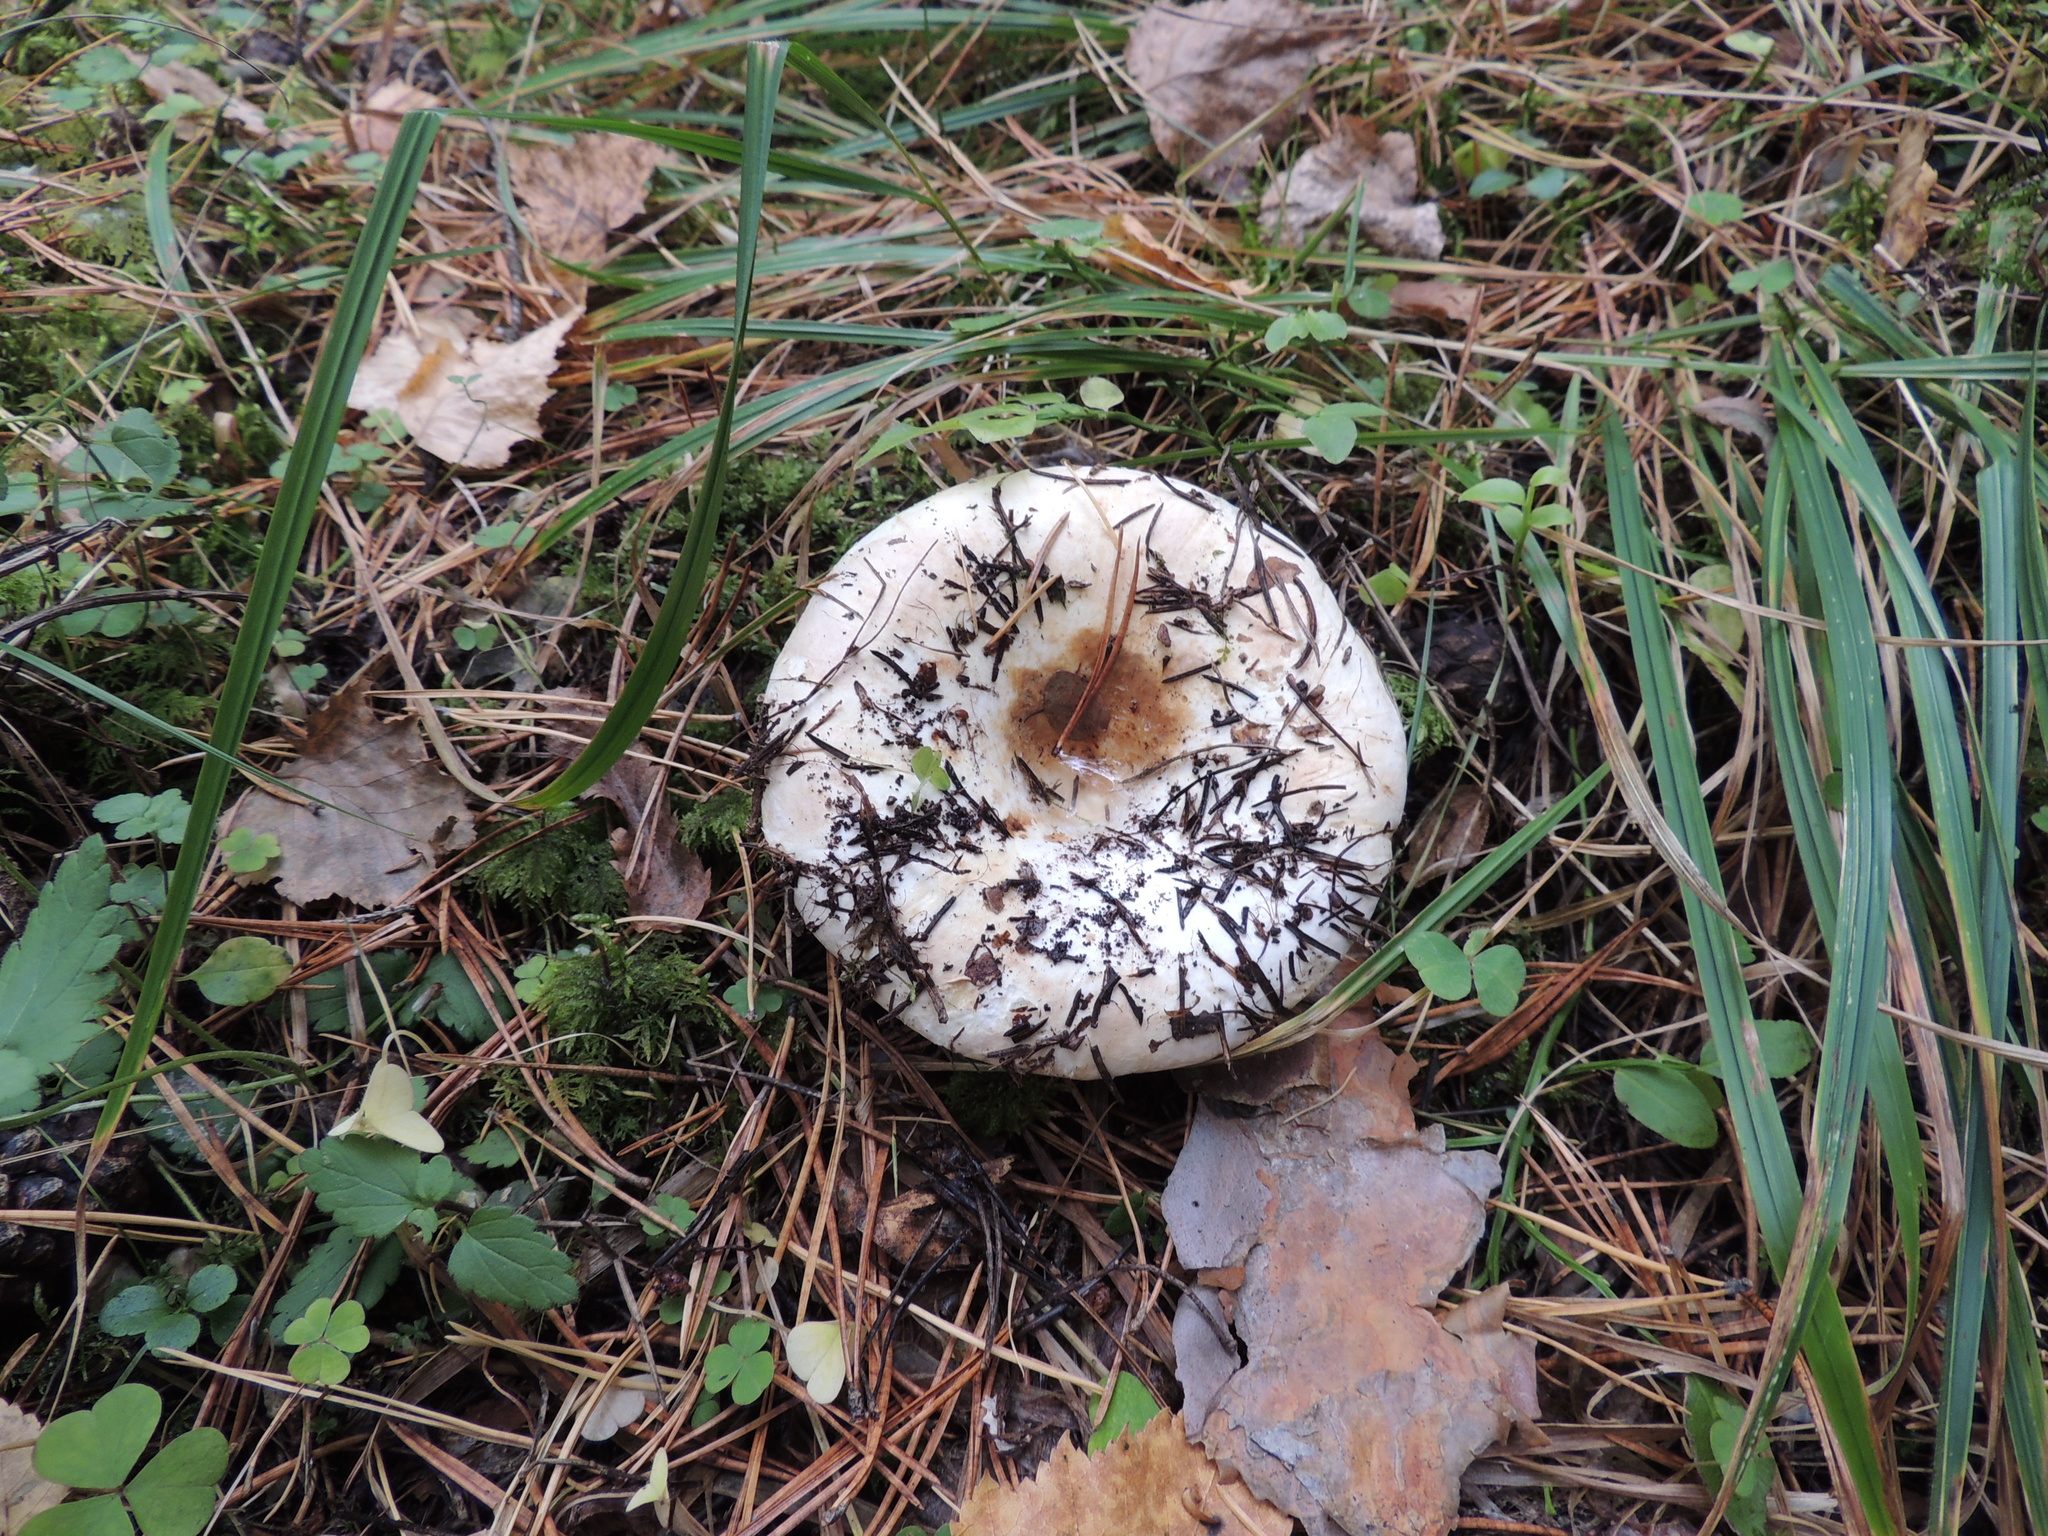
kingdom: Fungi
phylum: Basidiomycota
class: Agaricomycetes
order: Russulales
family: Russulaceae
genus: Russula
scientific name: Russula delica
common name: Milk white brittlegill
